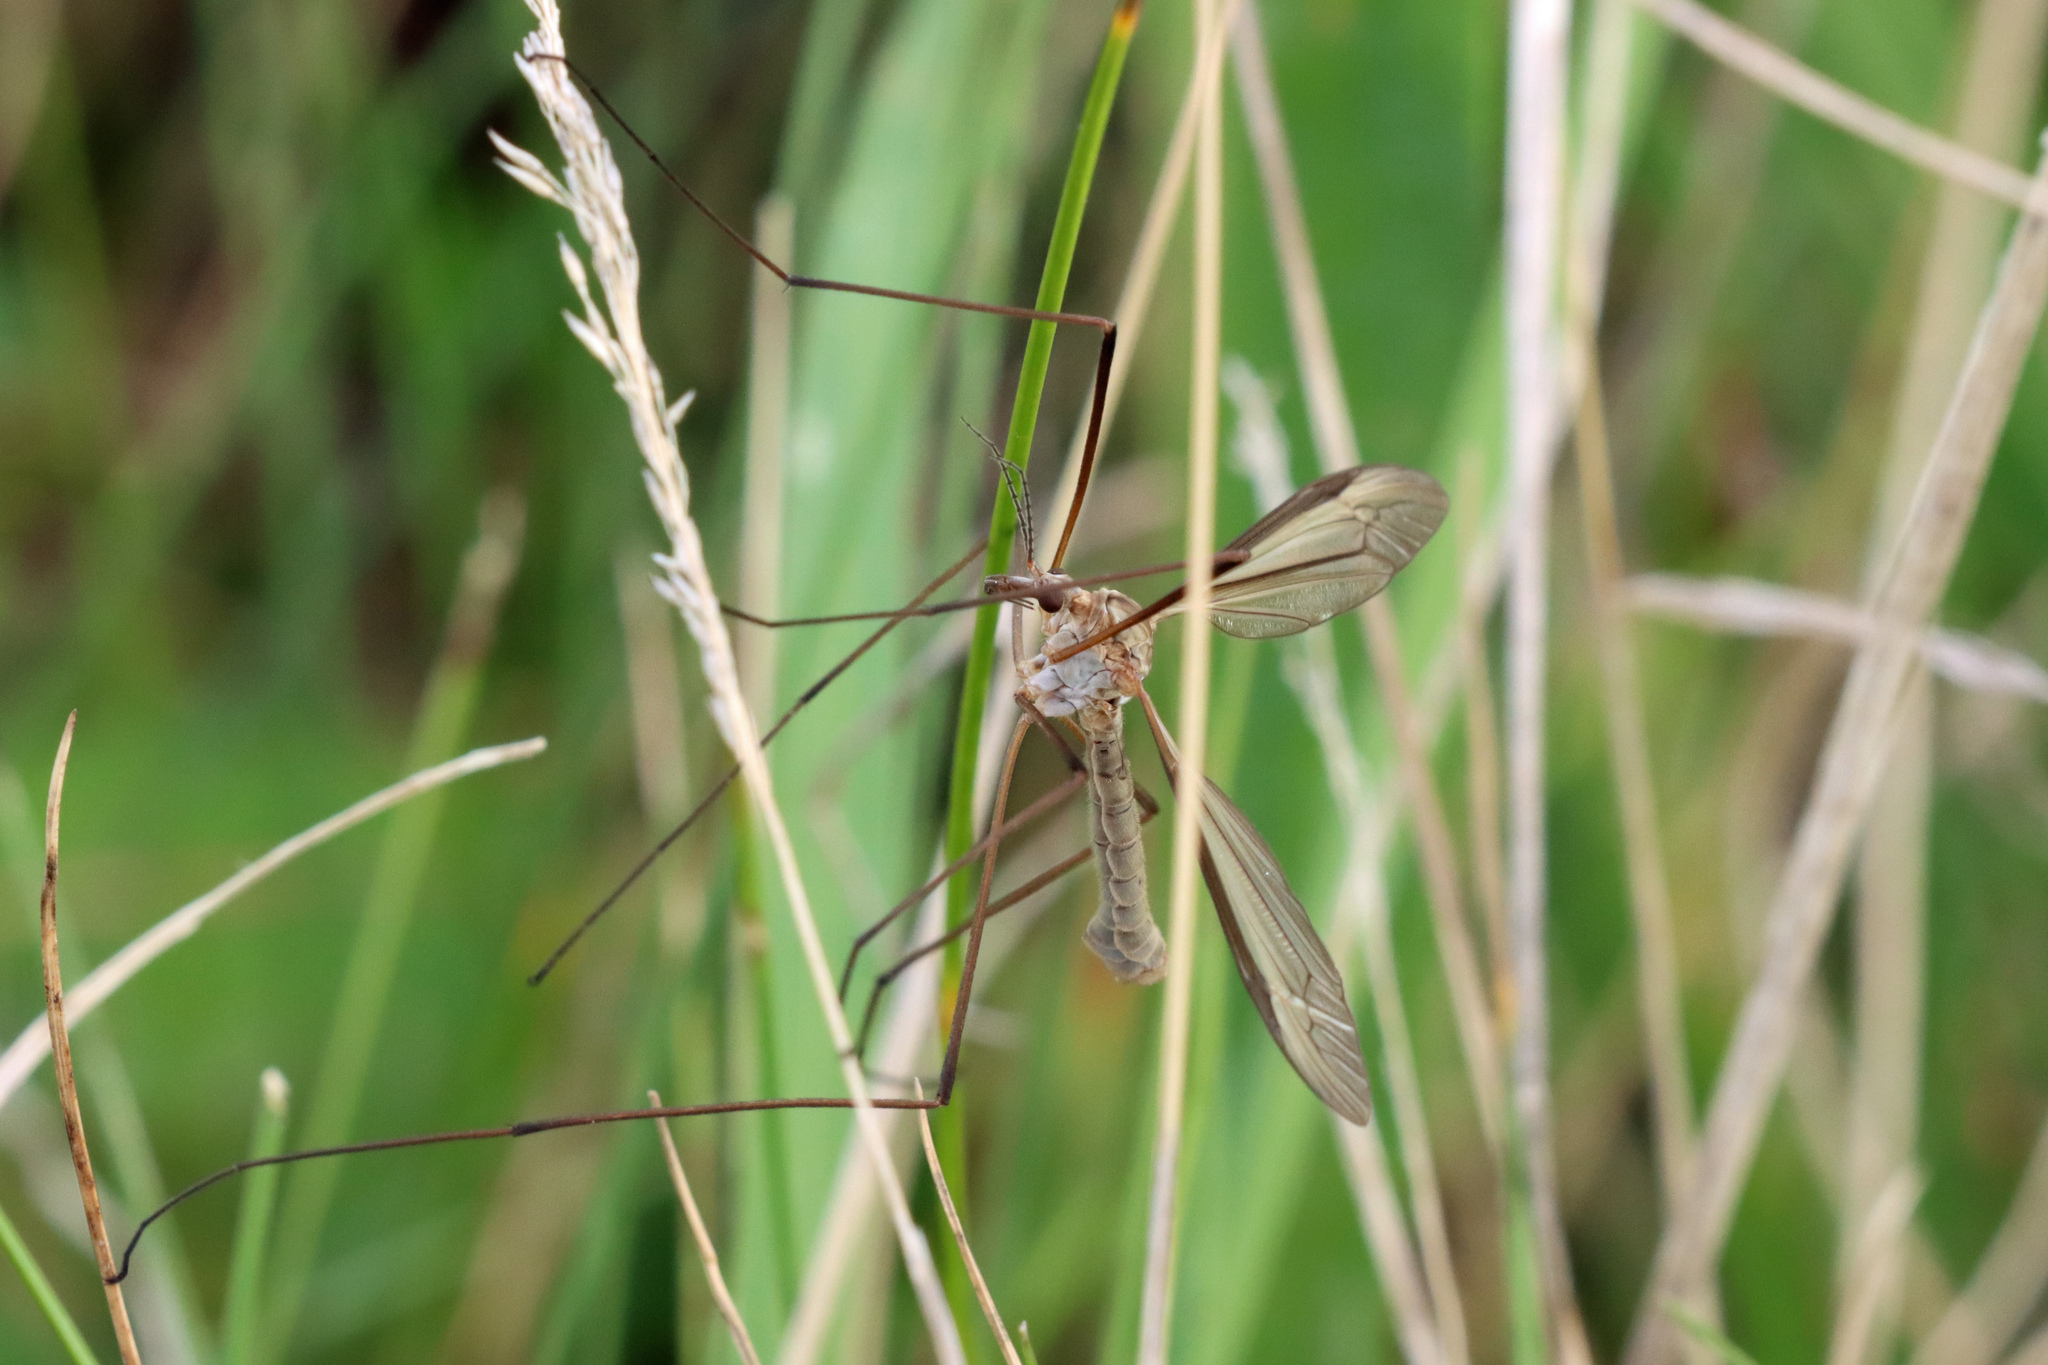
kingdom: Animalia
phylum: Arthropoda
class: Insecta
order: Diptera
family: Tipulidae
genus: Tipula
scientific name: Tipula paludosa
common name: European cranefly
